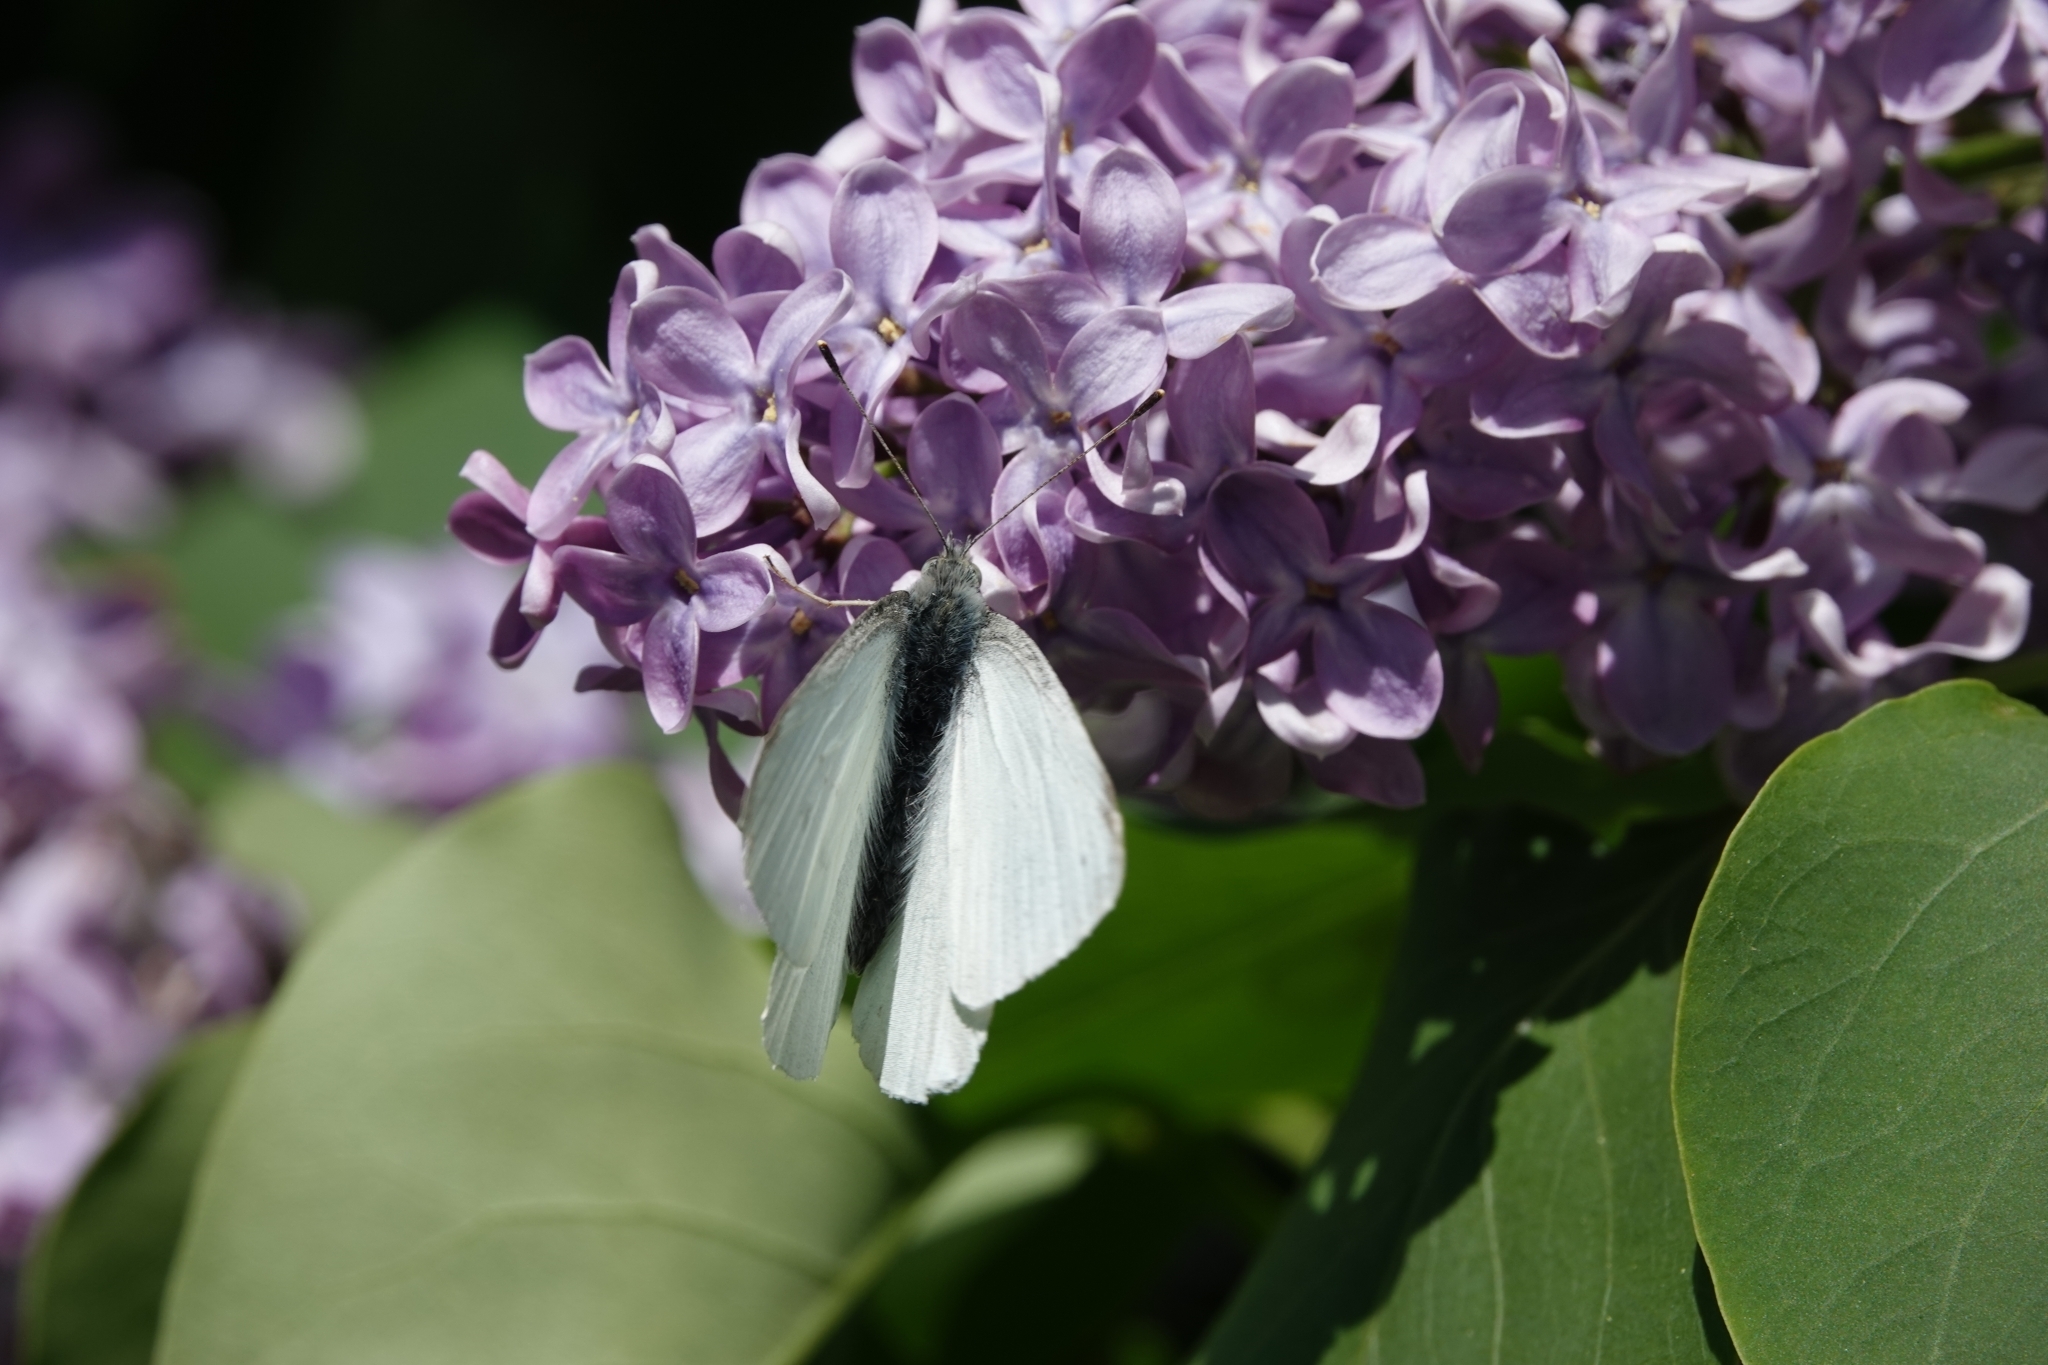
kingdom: Plantae
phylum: Tracheophyta
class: Magnoliopsida
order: Lamiales
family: Oleaceae
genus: Syringa
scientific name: Syringa vulgaris
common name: Common lilac
